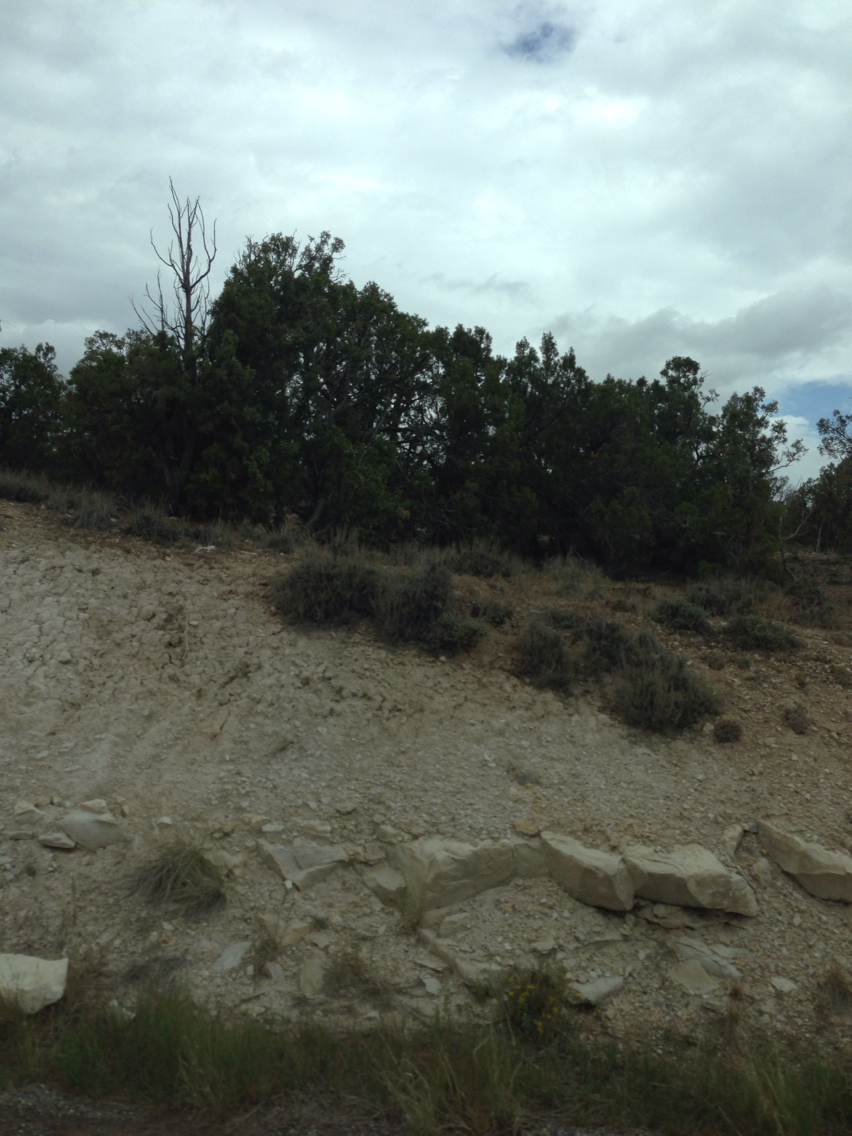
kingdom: Plantae
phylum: Tracheophyta
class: Pinopsida
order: Pinales
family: Cupressaceae
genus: Juniperus
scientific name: Juniperus osteosperma
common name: Utah juniper
